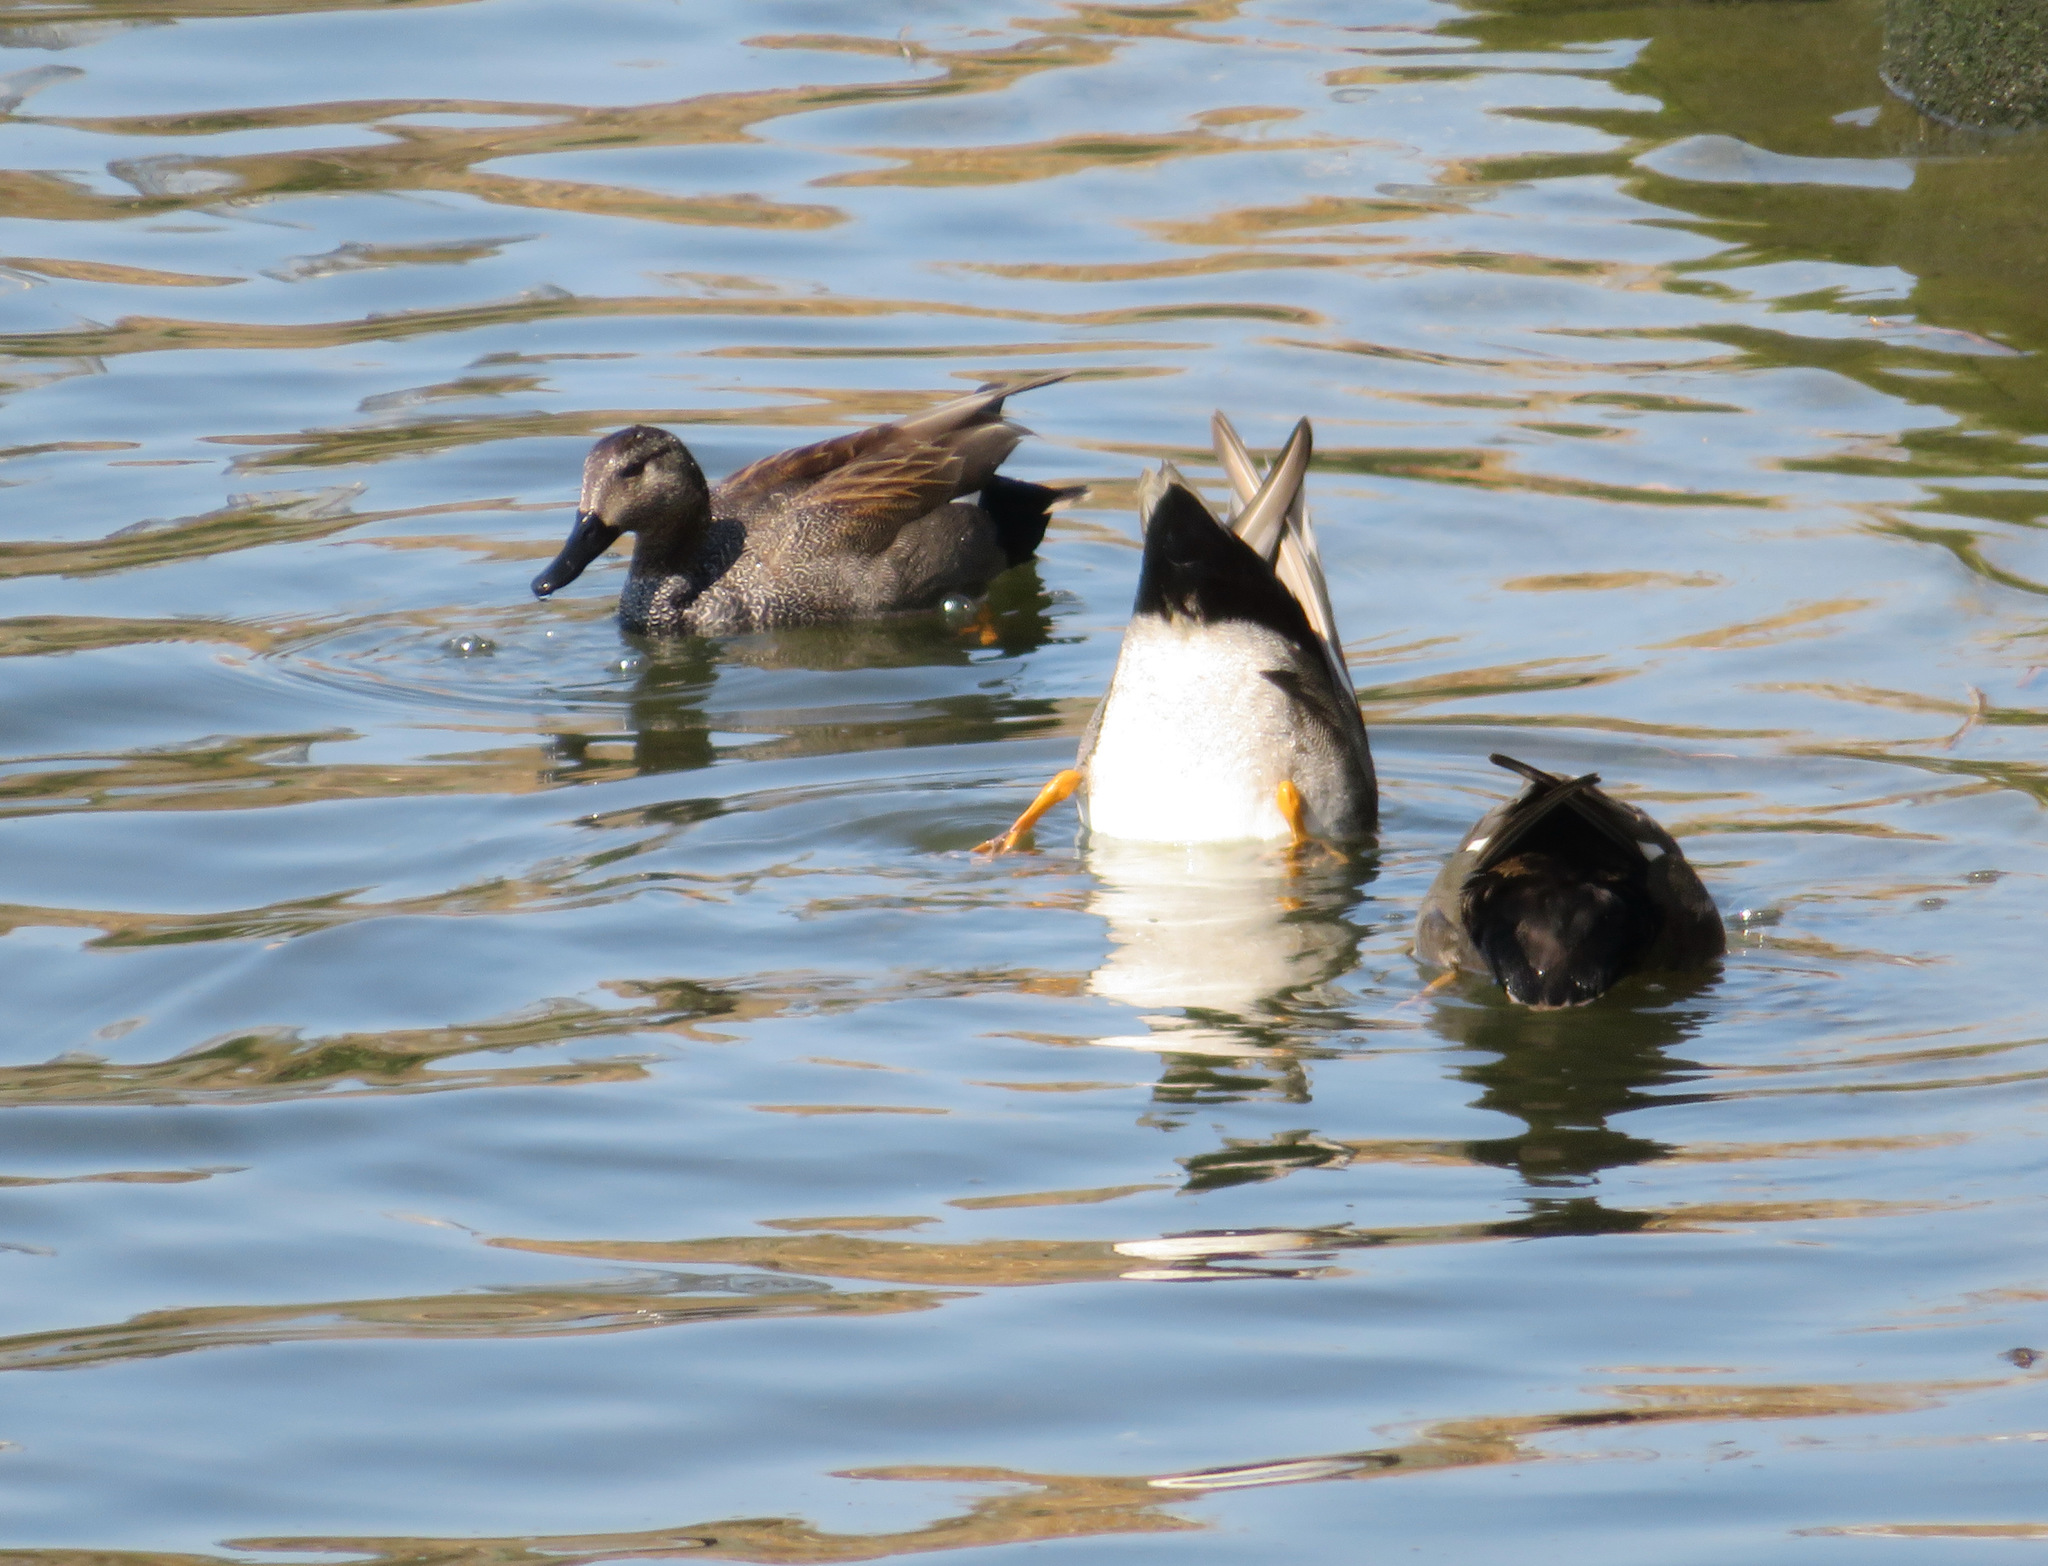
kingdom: Animalia
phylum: Chordata
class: Aves
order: Anseriformes
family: Anatidae
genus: Mareca
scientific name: Mareca strepera
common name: Gadwall
